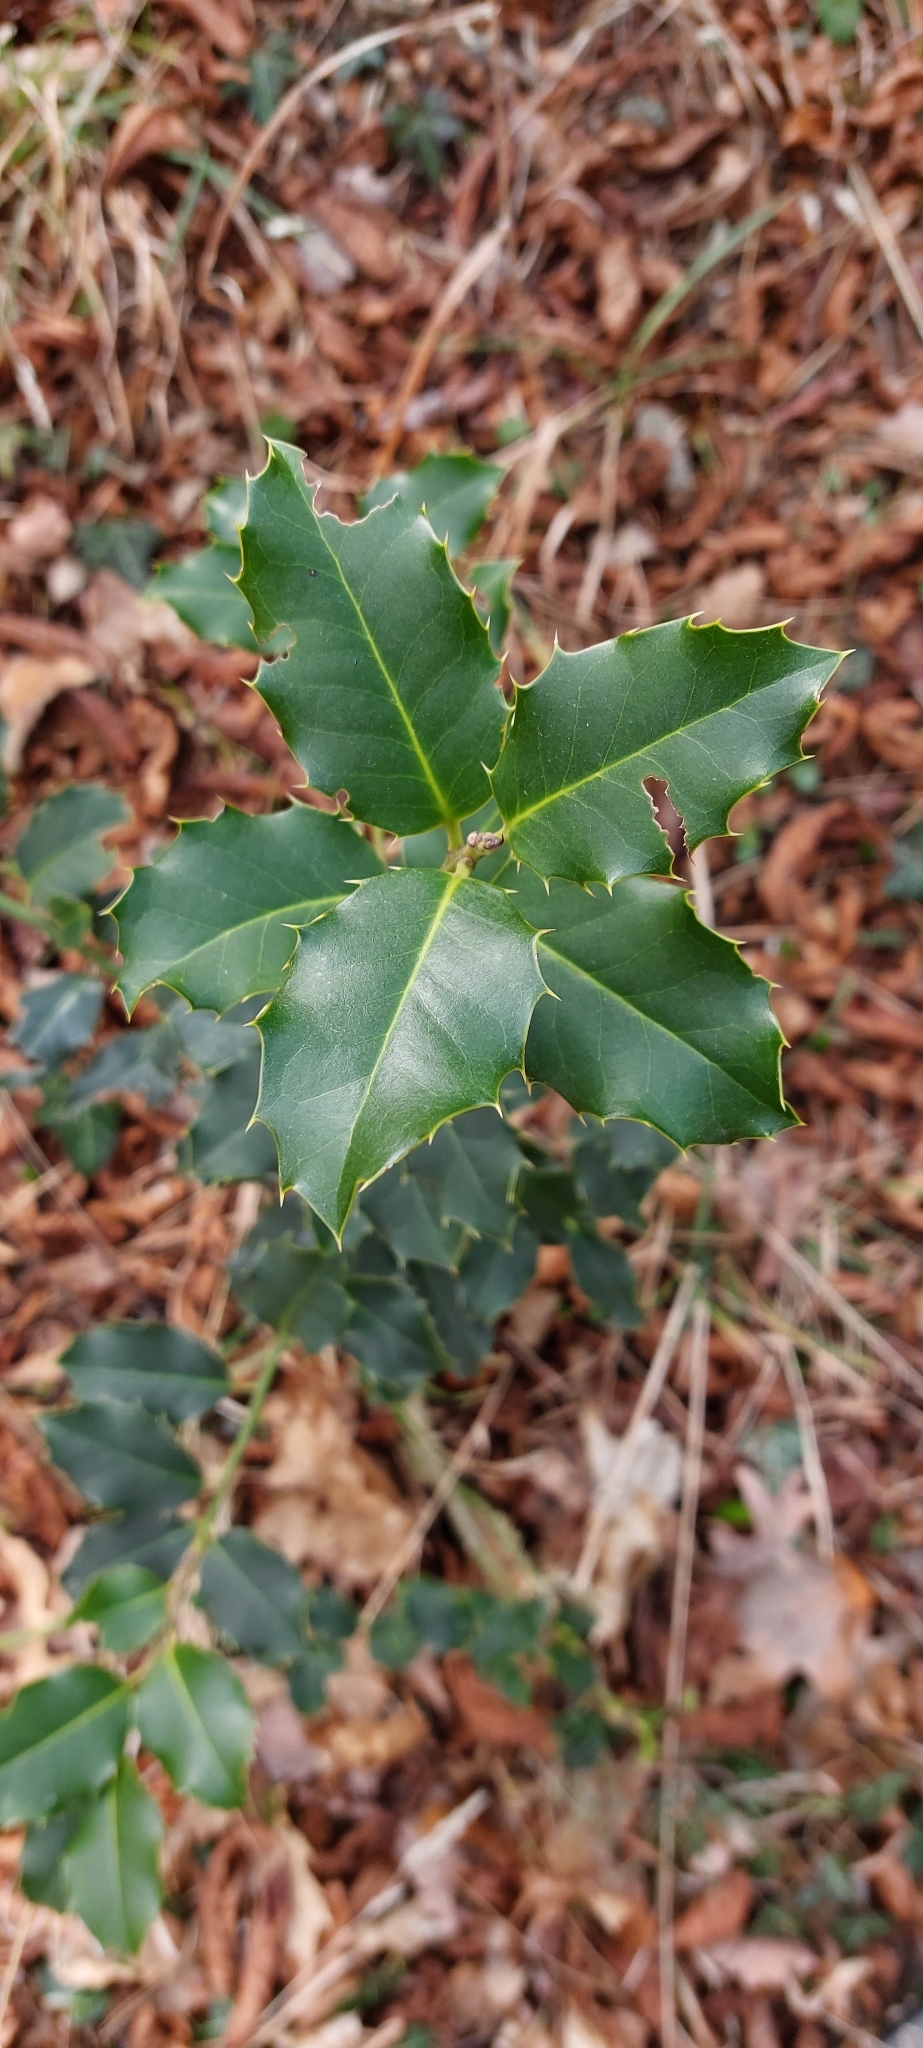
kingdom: Plantae
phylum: Tracheophyta
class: Magnoliopsida
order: Aquifoliales
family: Aquifoliaceae
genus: Ilex
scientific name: Ilex aquifolium
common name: English holly
